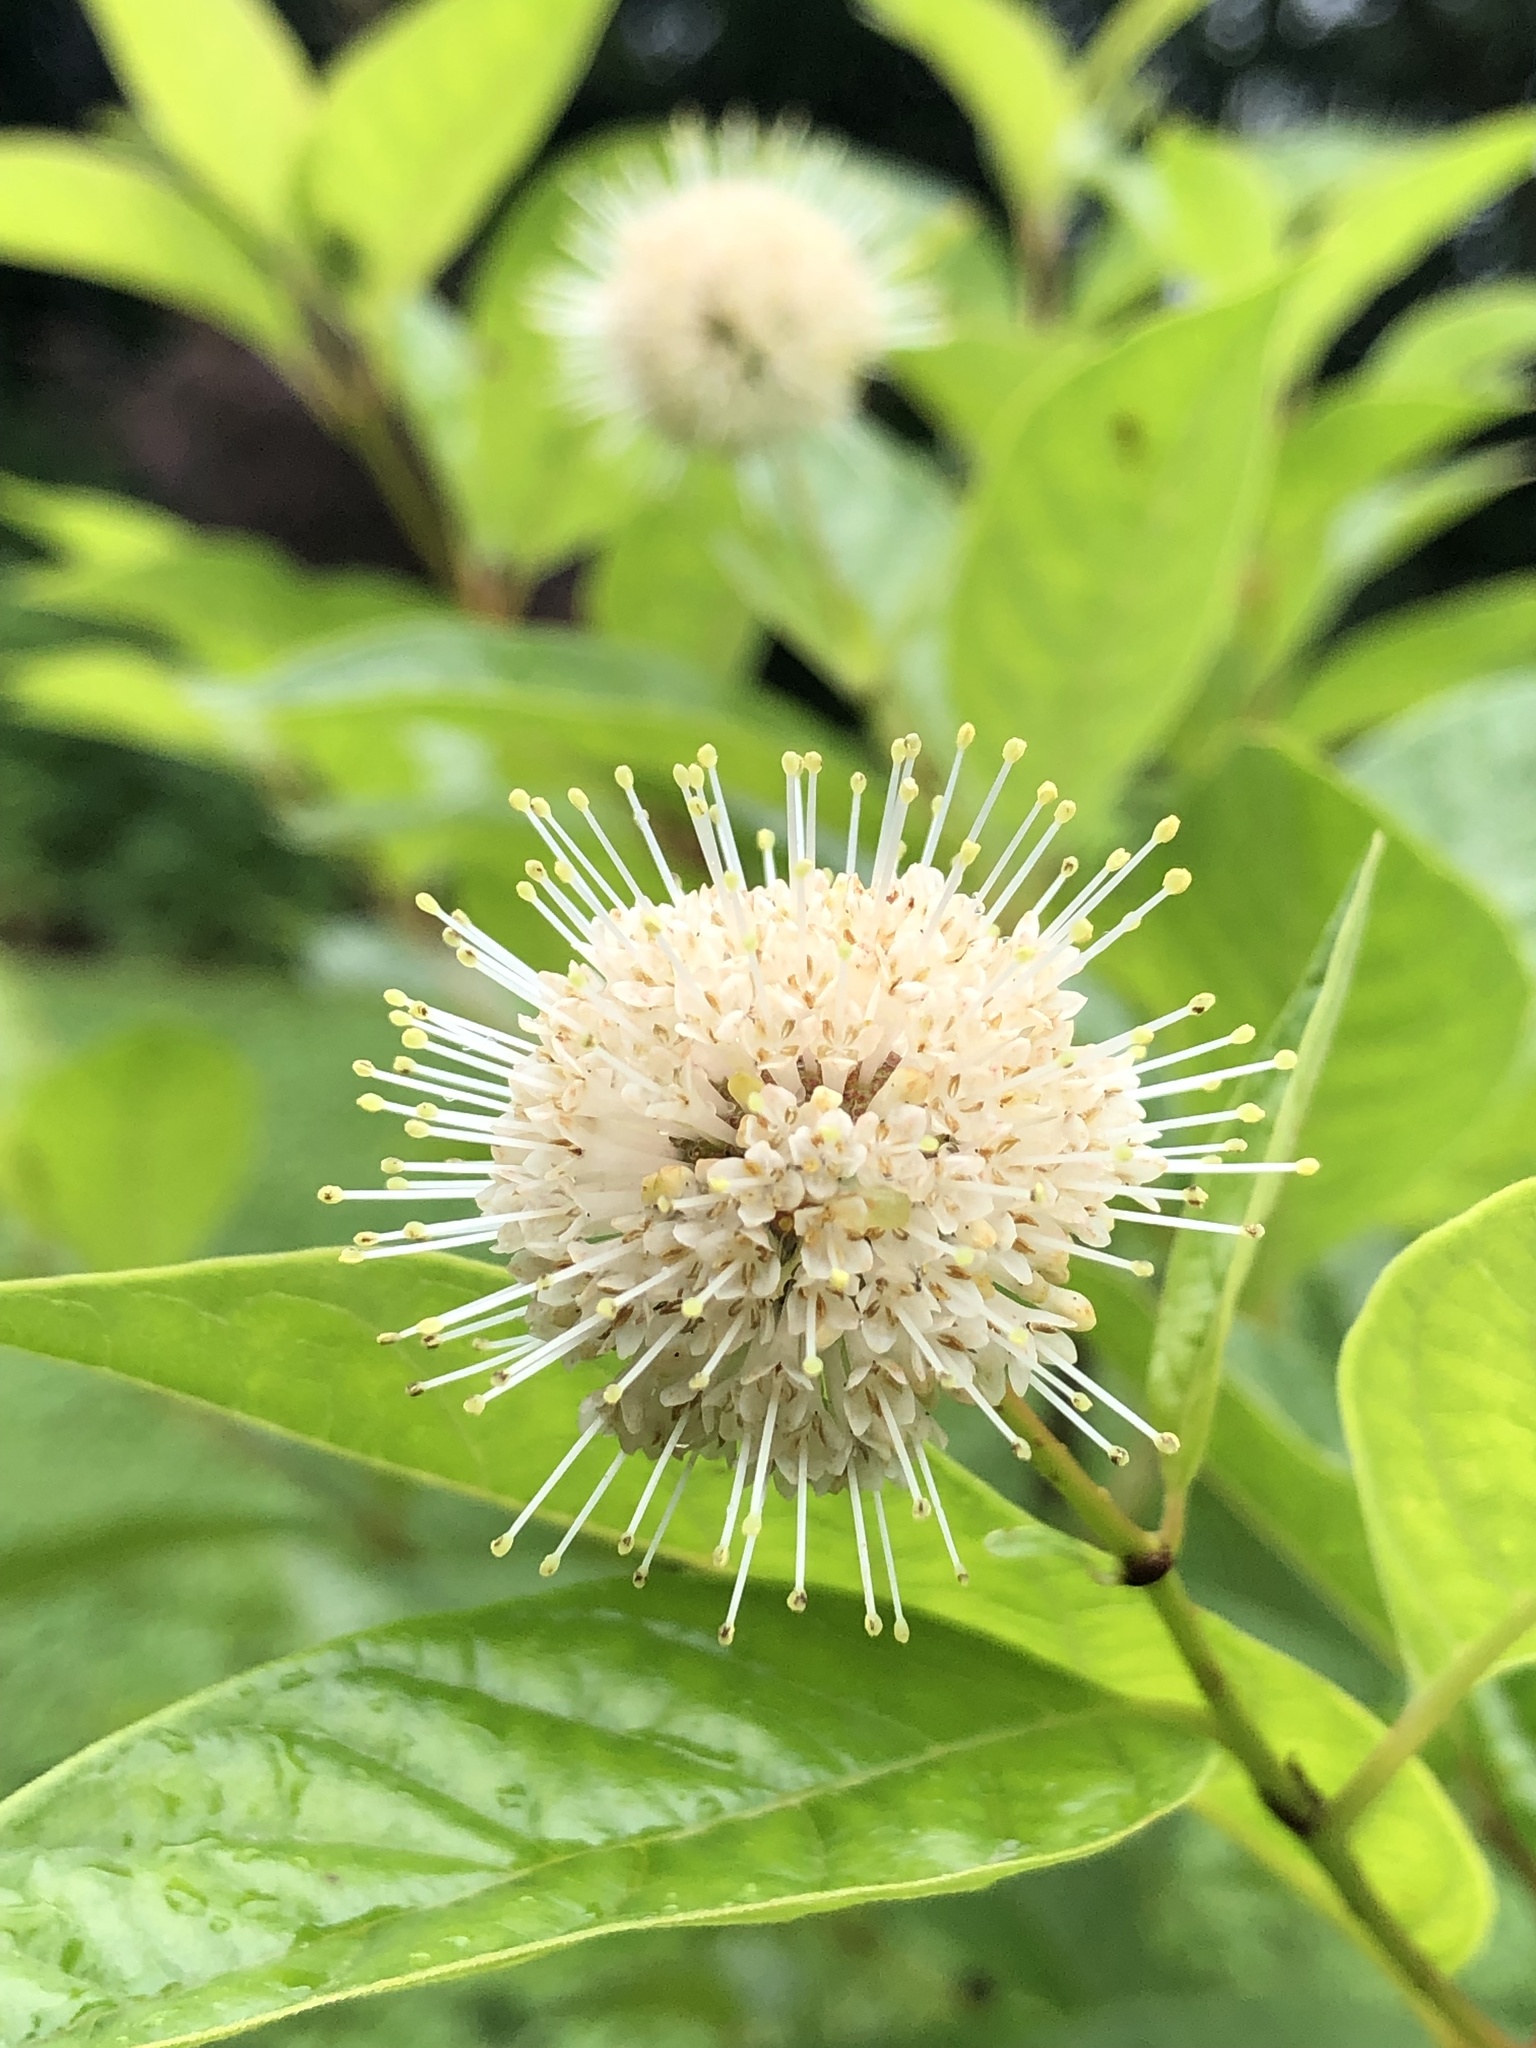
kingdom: Plantae
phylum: Tracheophyta
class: Magnoliopsida
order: Gentianales
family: Rubiaceae
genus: Cephalanthus
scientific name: Cephalanthus occidentalis
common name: Button-willow
